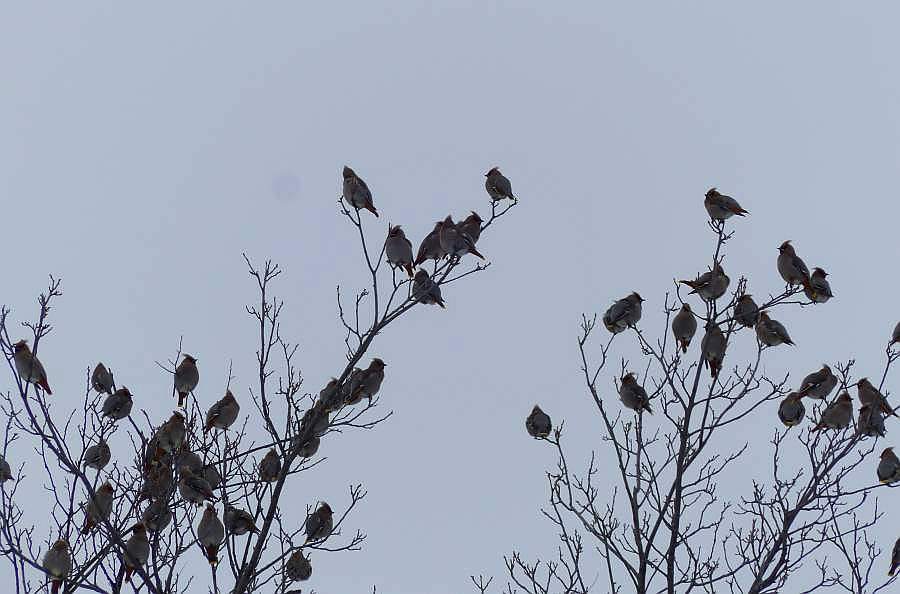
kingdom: Animalia
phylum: Chordata
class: Aves
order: Passeriformes
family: Bombycillidae
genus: Bombycilla
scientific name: Bombycilla garrulus
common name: Bohemian waxwing
